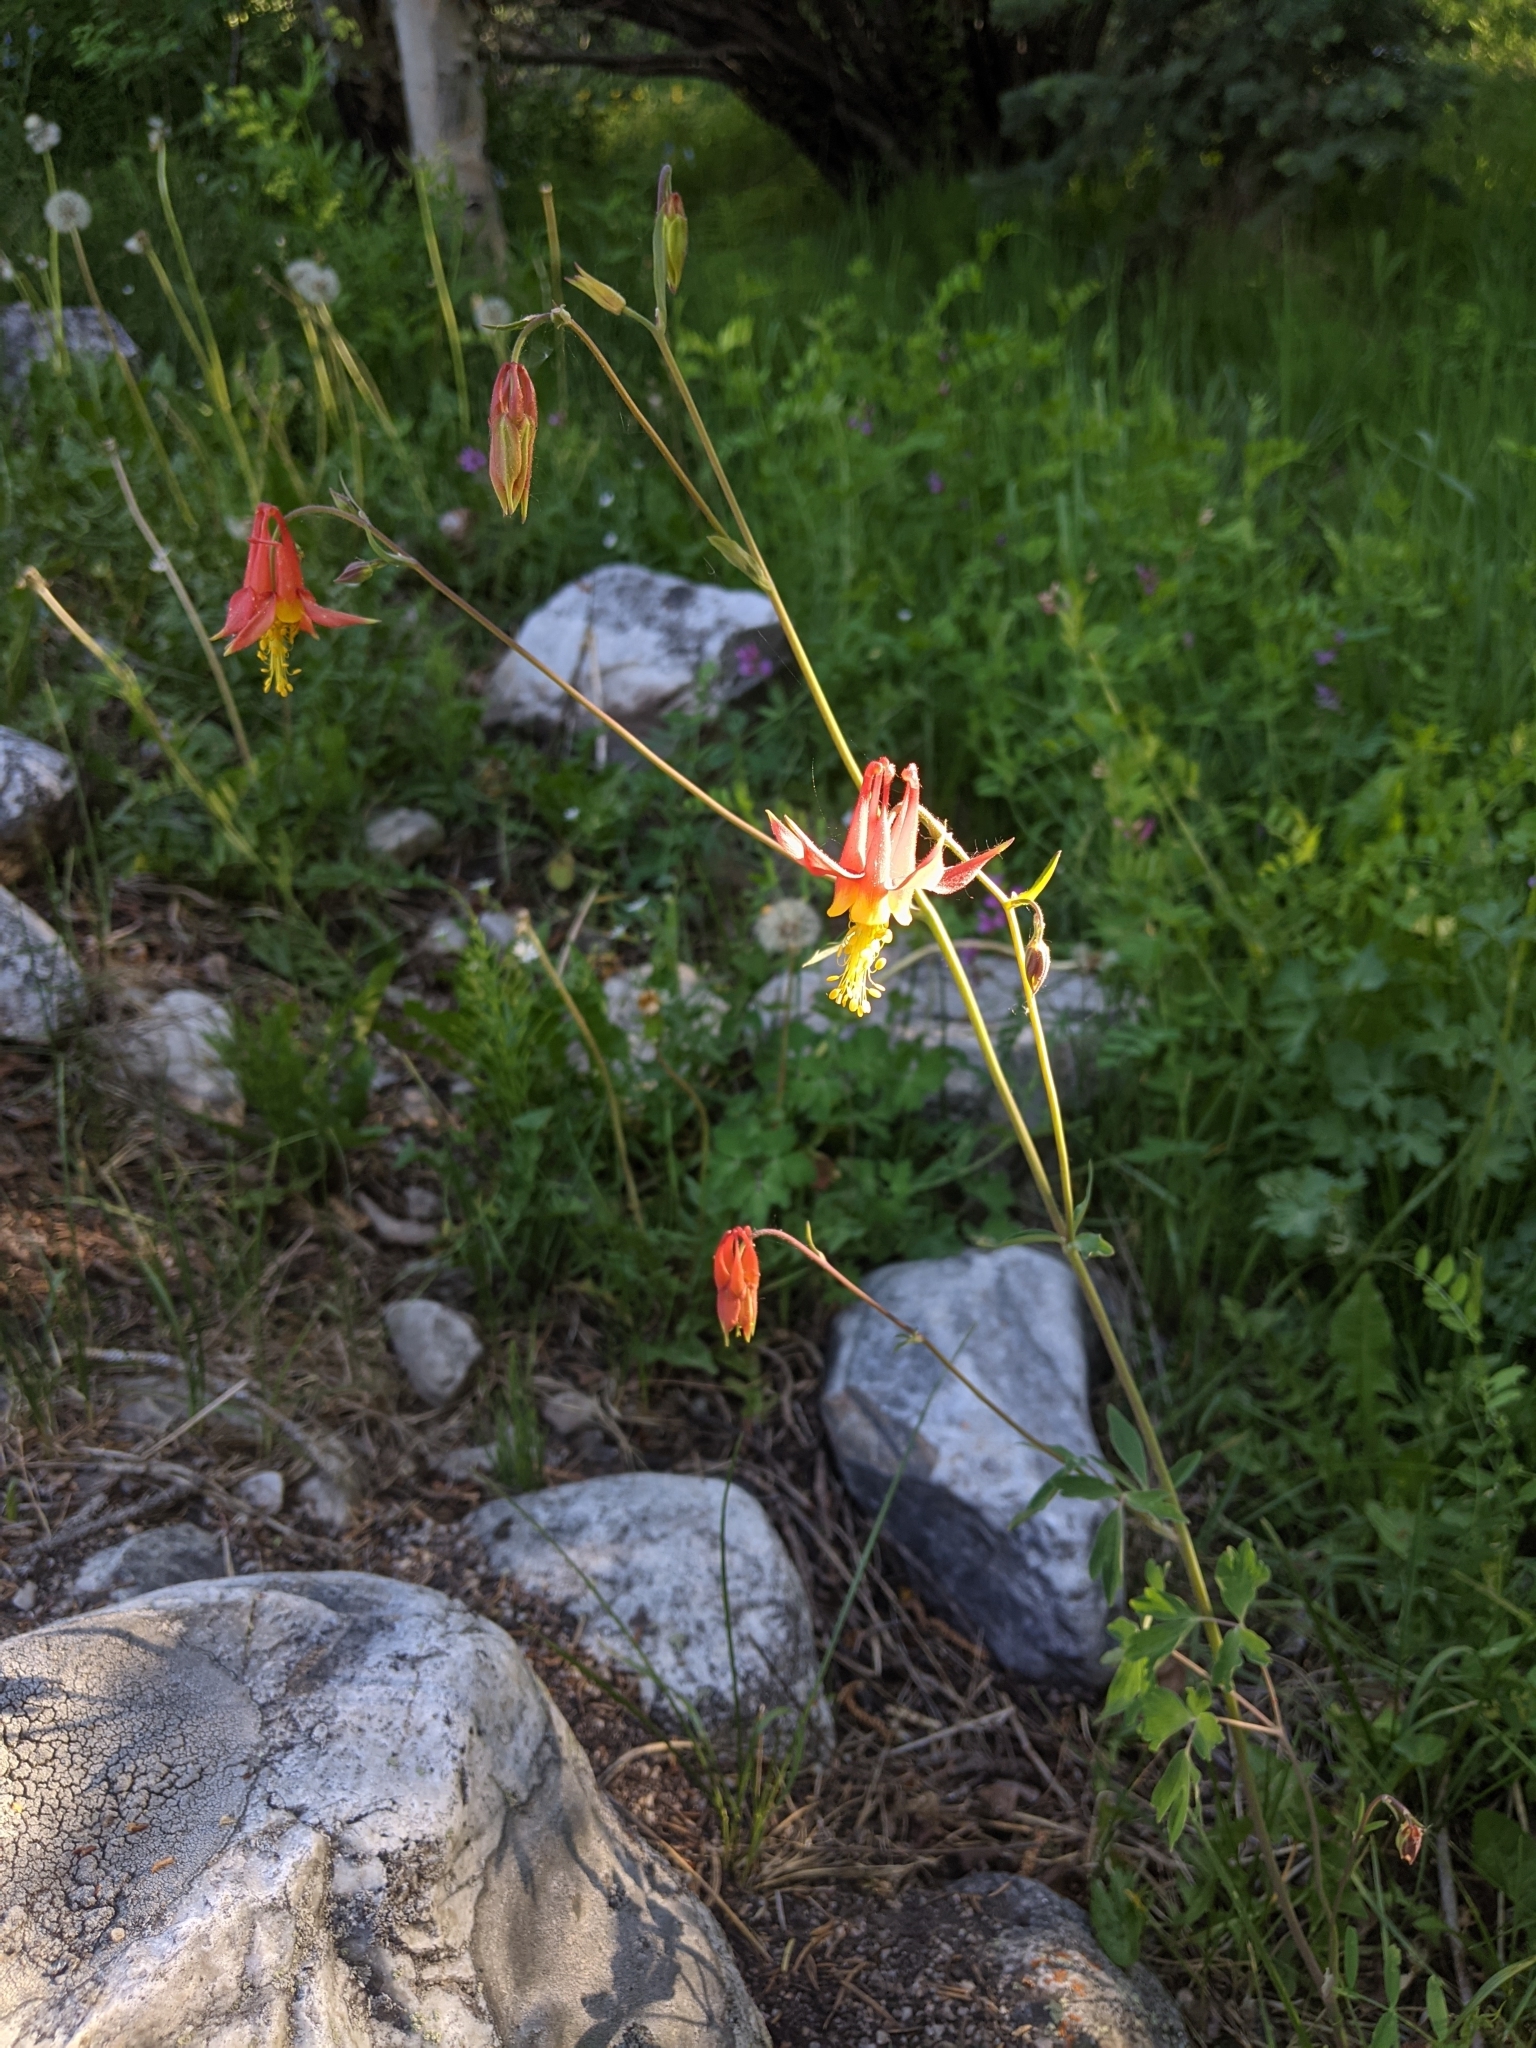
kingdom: Plantae
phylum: Tracheophyta
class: Magnoliopsida
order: Ranunculales
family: Ranunculaceae
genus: Aquilegia
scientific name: Aquilegia formosa
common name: Sitka columbine
